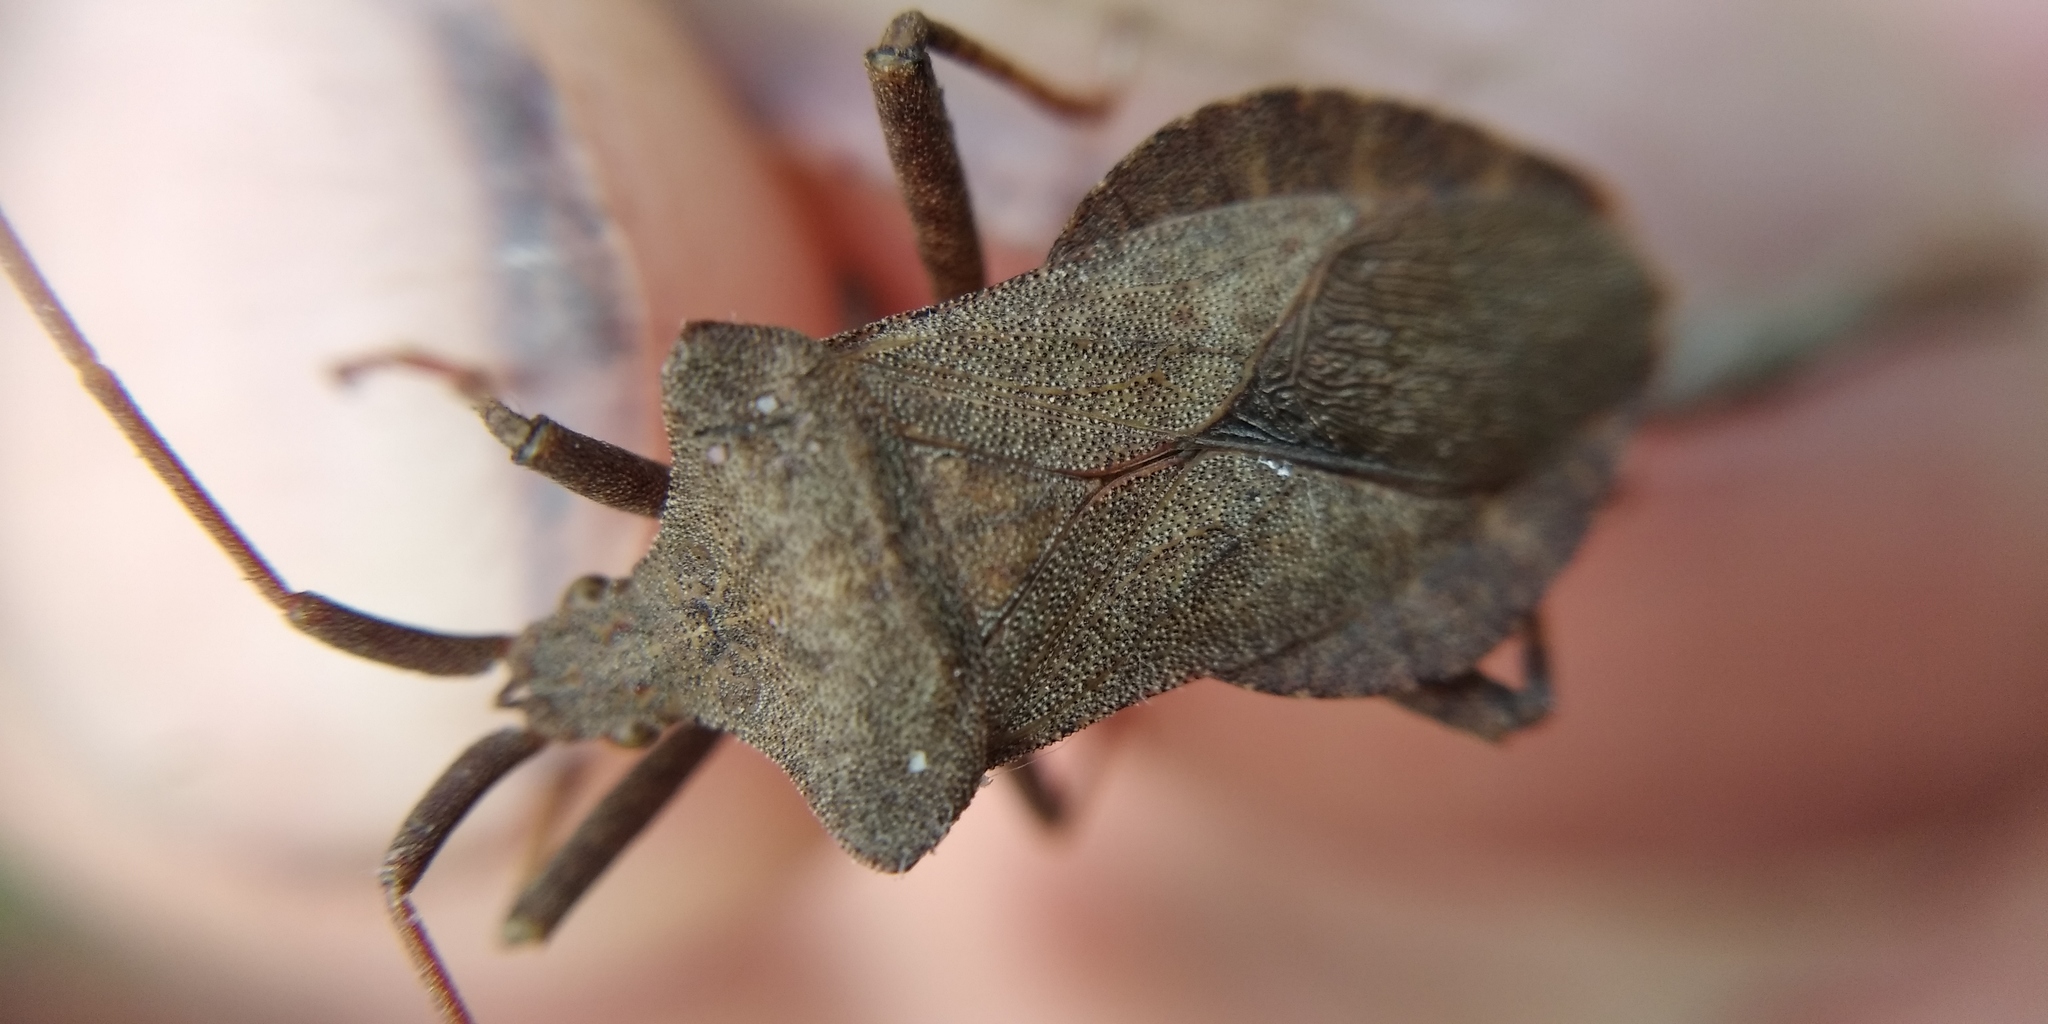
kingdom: Animalia
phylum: Arthropoda
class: Insecta
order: Hemiptera
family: Coreidae
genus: Coreus
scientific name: Coreus marginatus
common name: Dock bug
